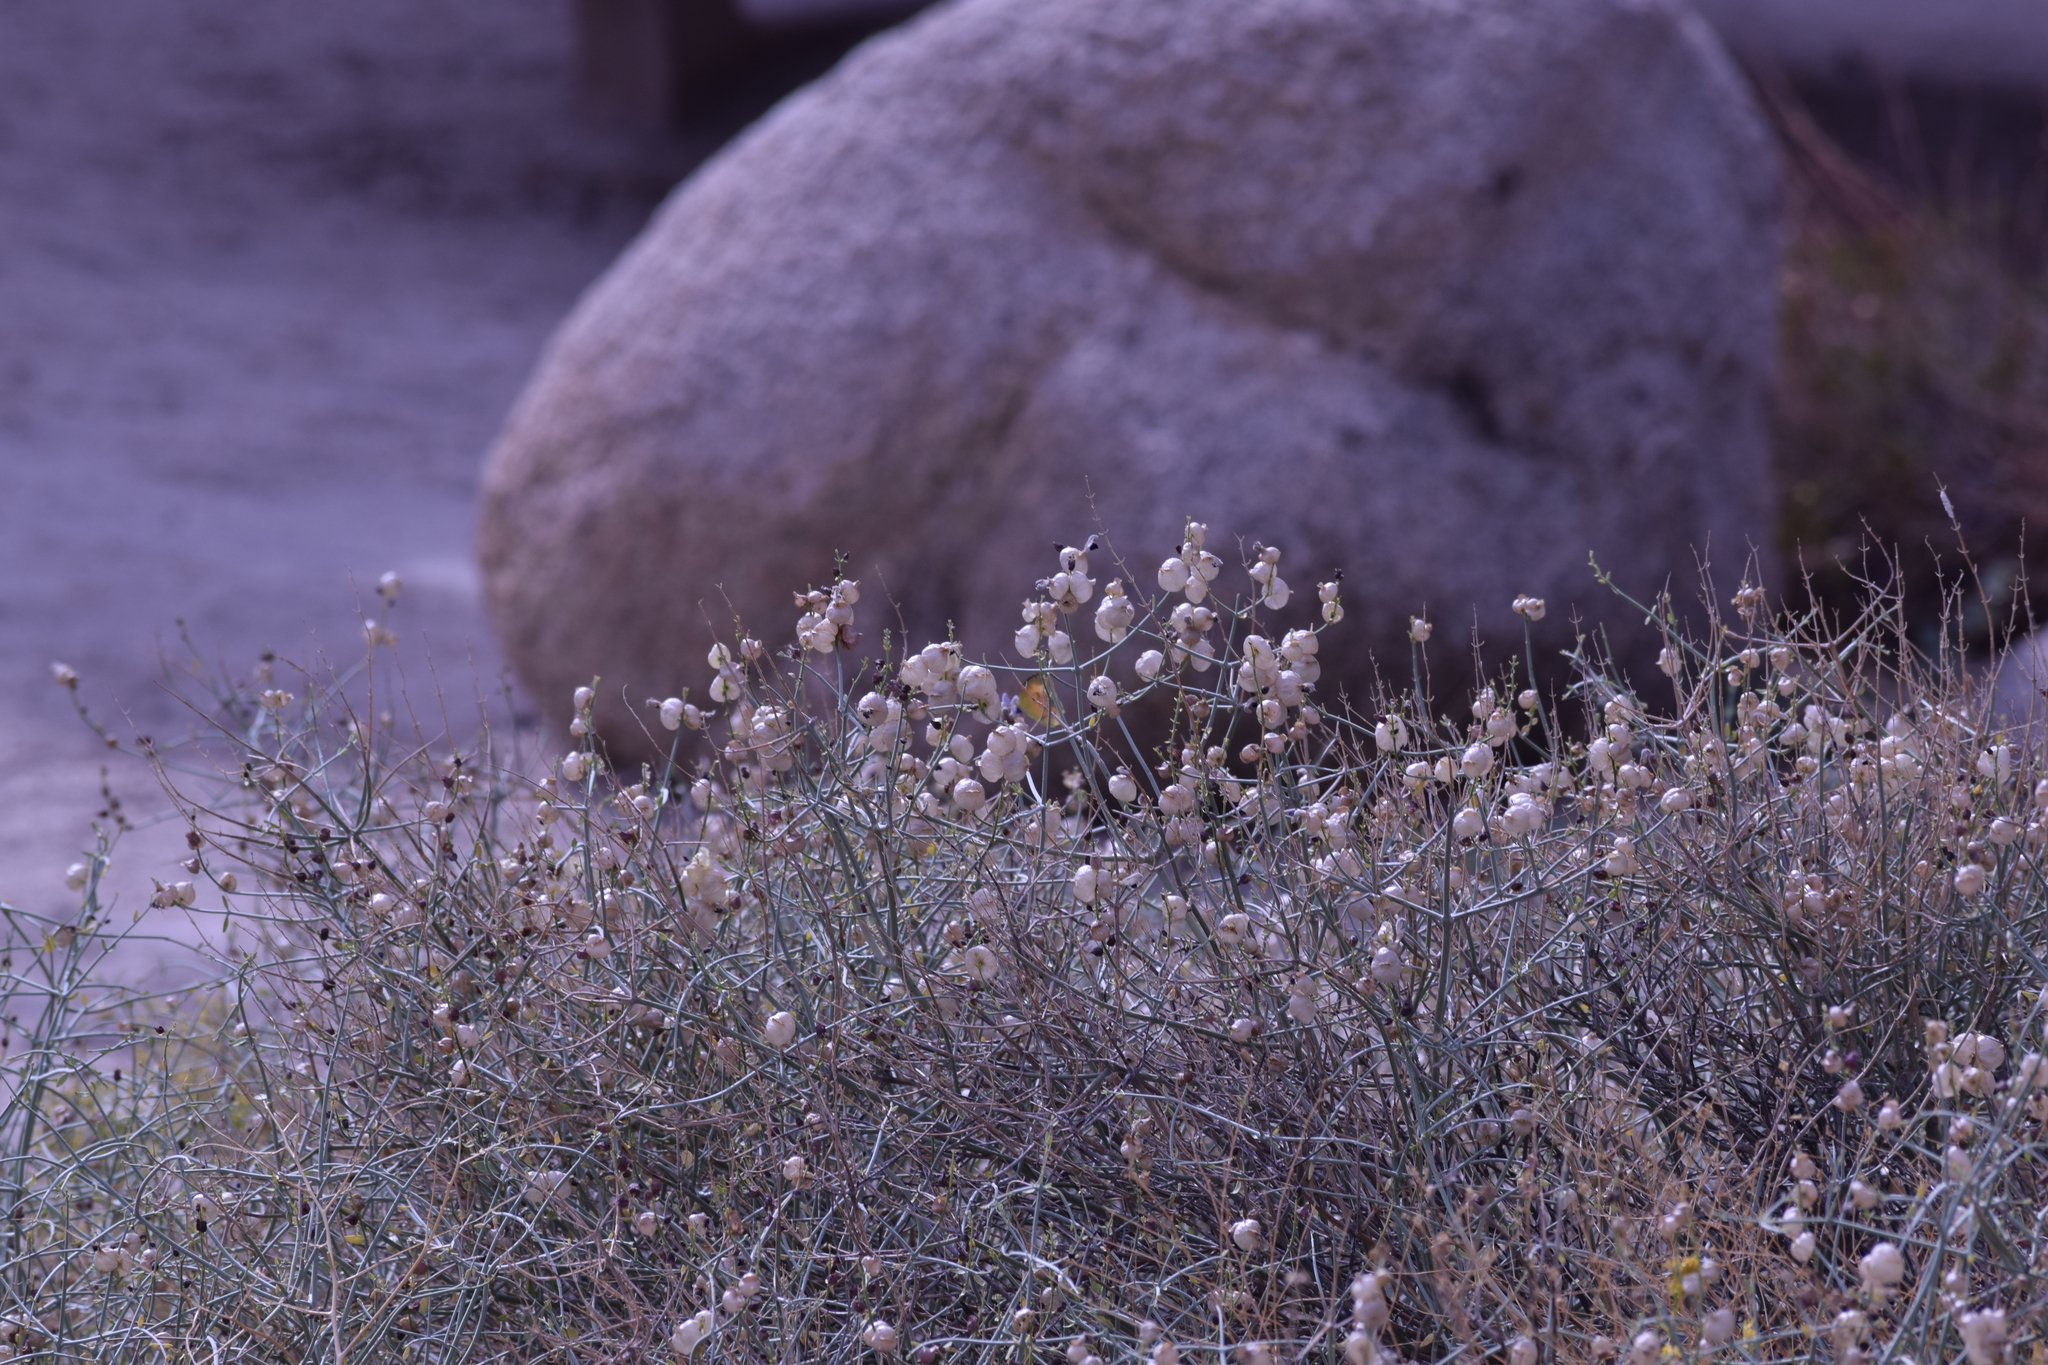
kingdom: Plantae
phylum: Tracheophyta
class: Magnoliopsida
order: Lamiales
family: Lamiaceae
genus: Scutellaria
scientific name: Scutellaria mexicana
